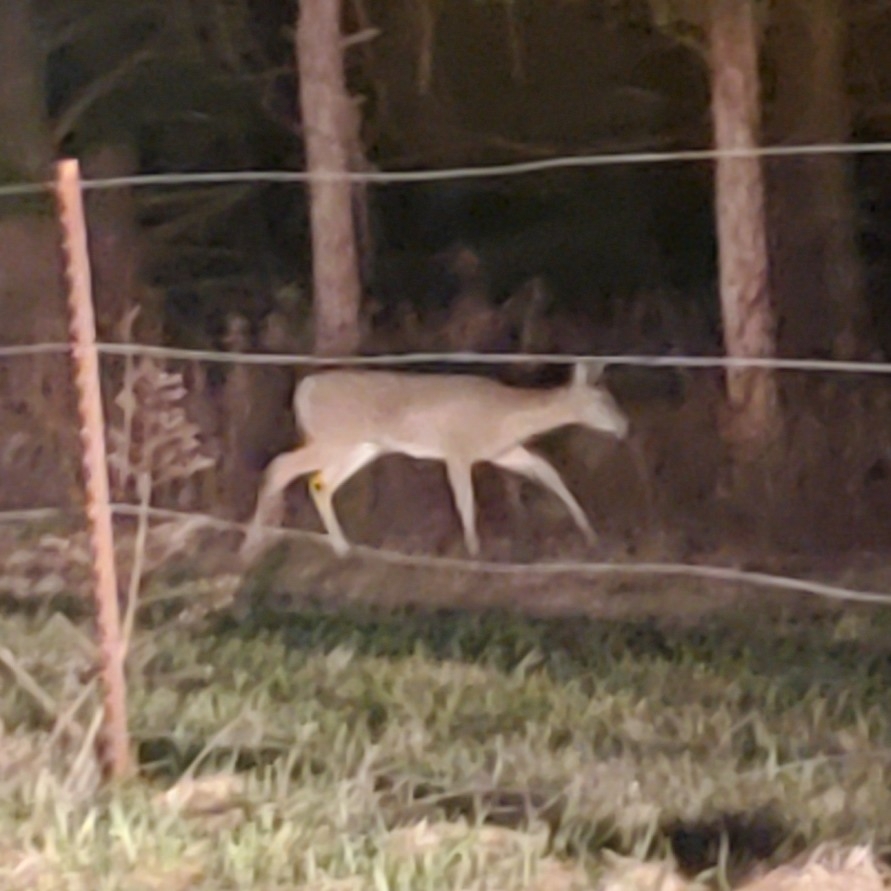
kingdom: Animalia
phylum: Chordata
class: Mammalia
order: Artiodactyla
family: Cervidae
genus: Odocoileus
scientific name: Odocoileus virginianus
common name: White-tailed deer
